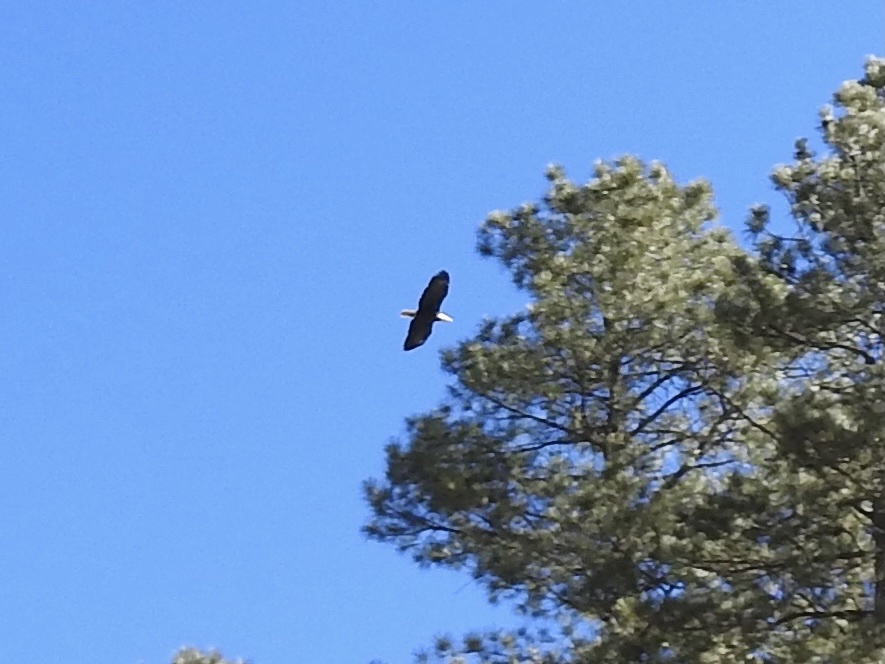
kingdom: Animalia
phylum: Chordata
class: Aves
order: Accipitriformes
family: Accipitridae
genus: Haliaeetus
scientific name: Haliaeetus leucocephalus
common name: Bald eagle
